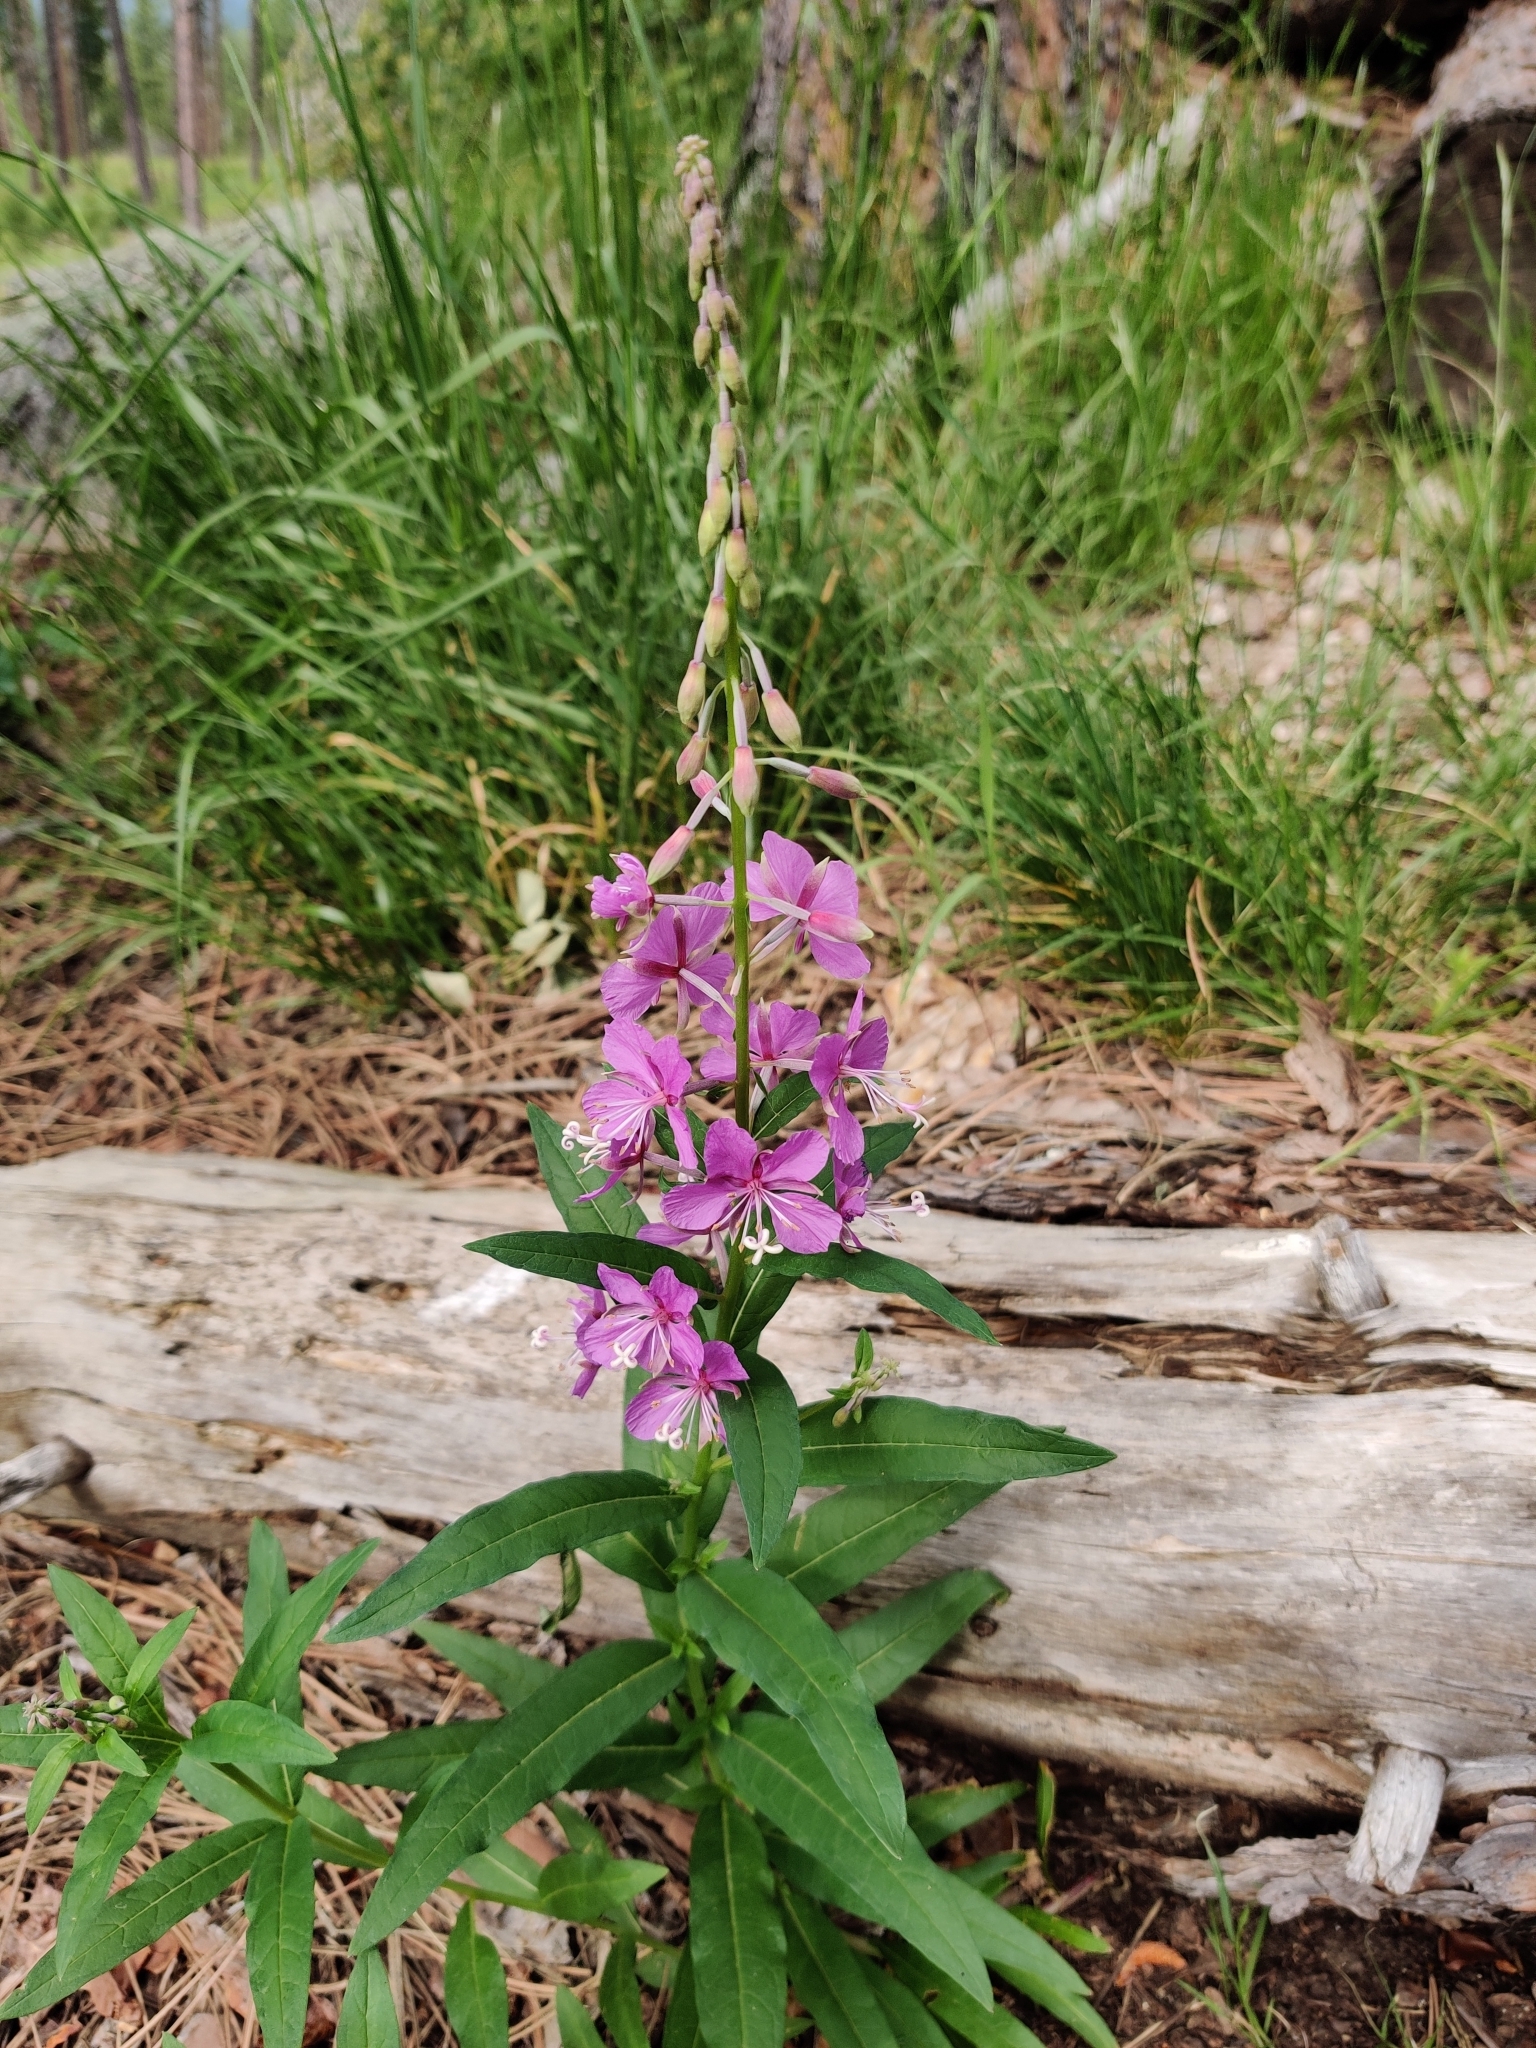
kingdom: Plantae
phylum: Tracheophyta
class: Magnoliopsida
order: Myrtales
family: Onagraceae
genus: Chamaenerion
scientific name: Chamaenerion angustifolium
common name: Fireweed
